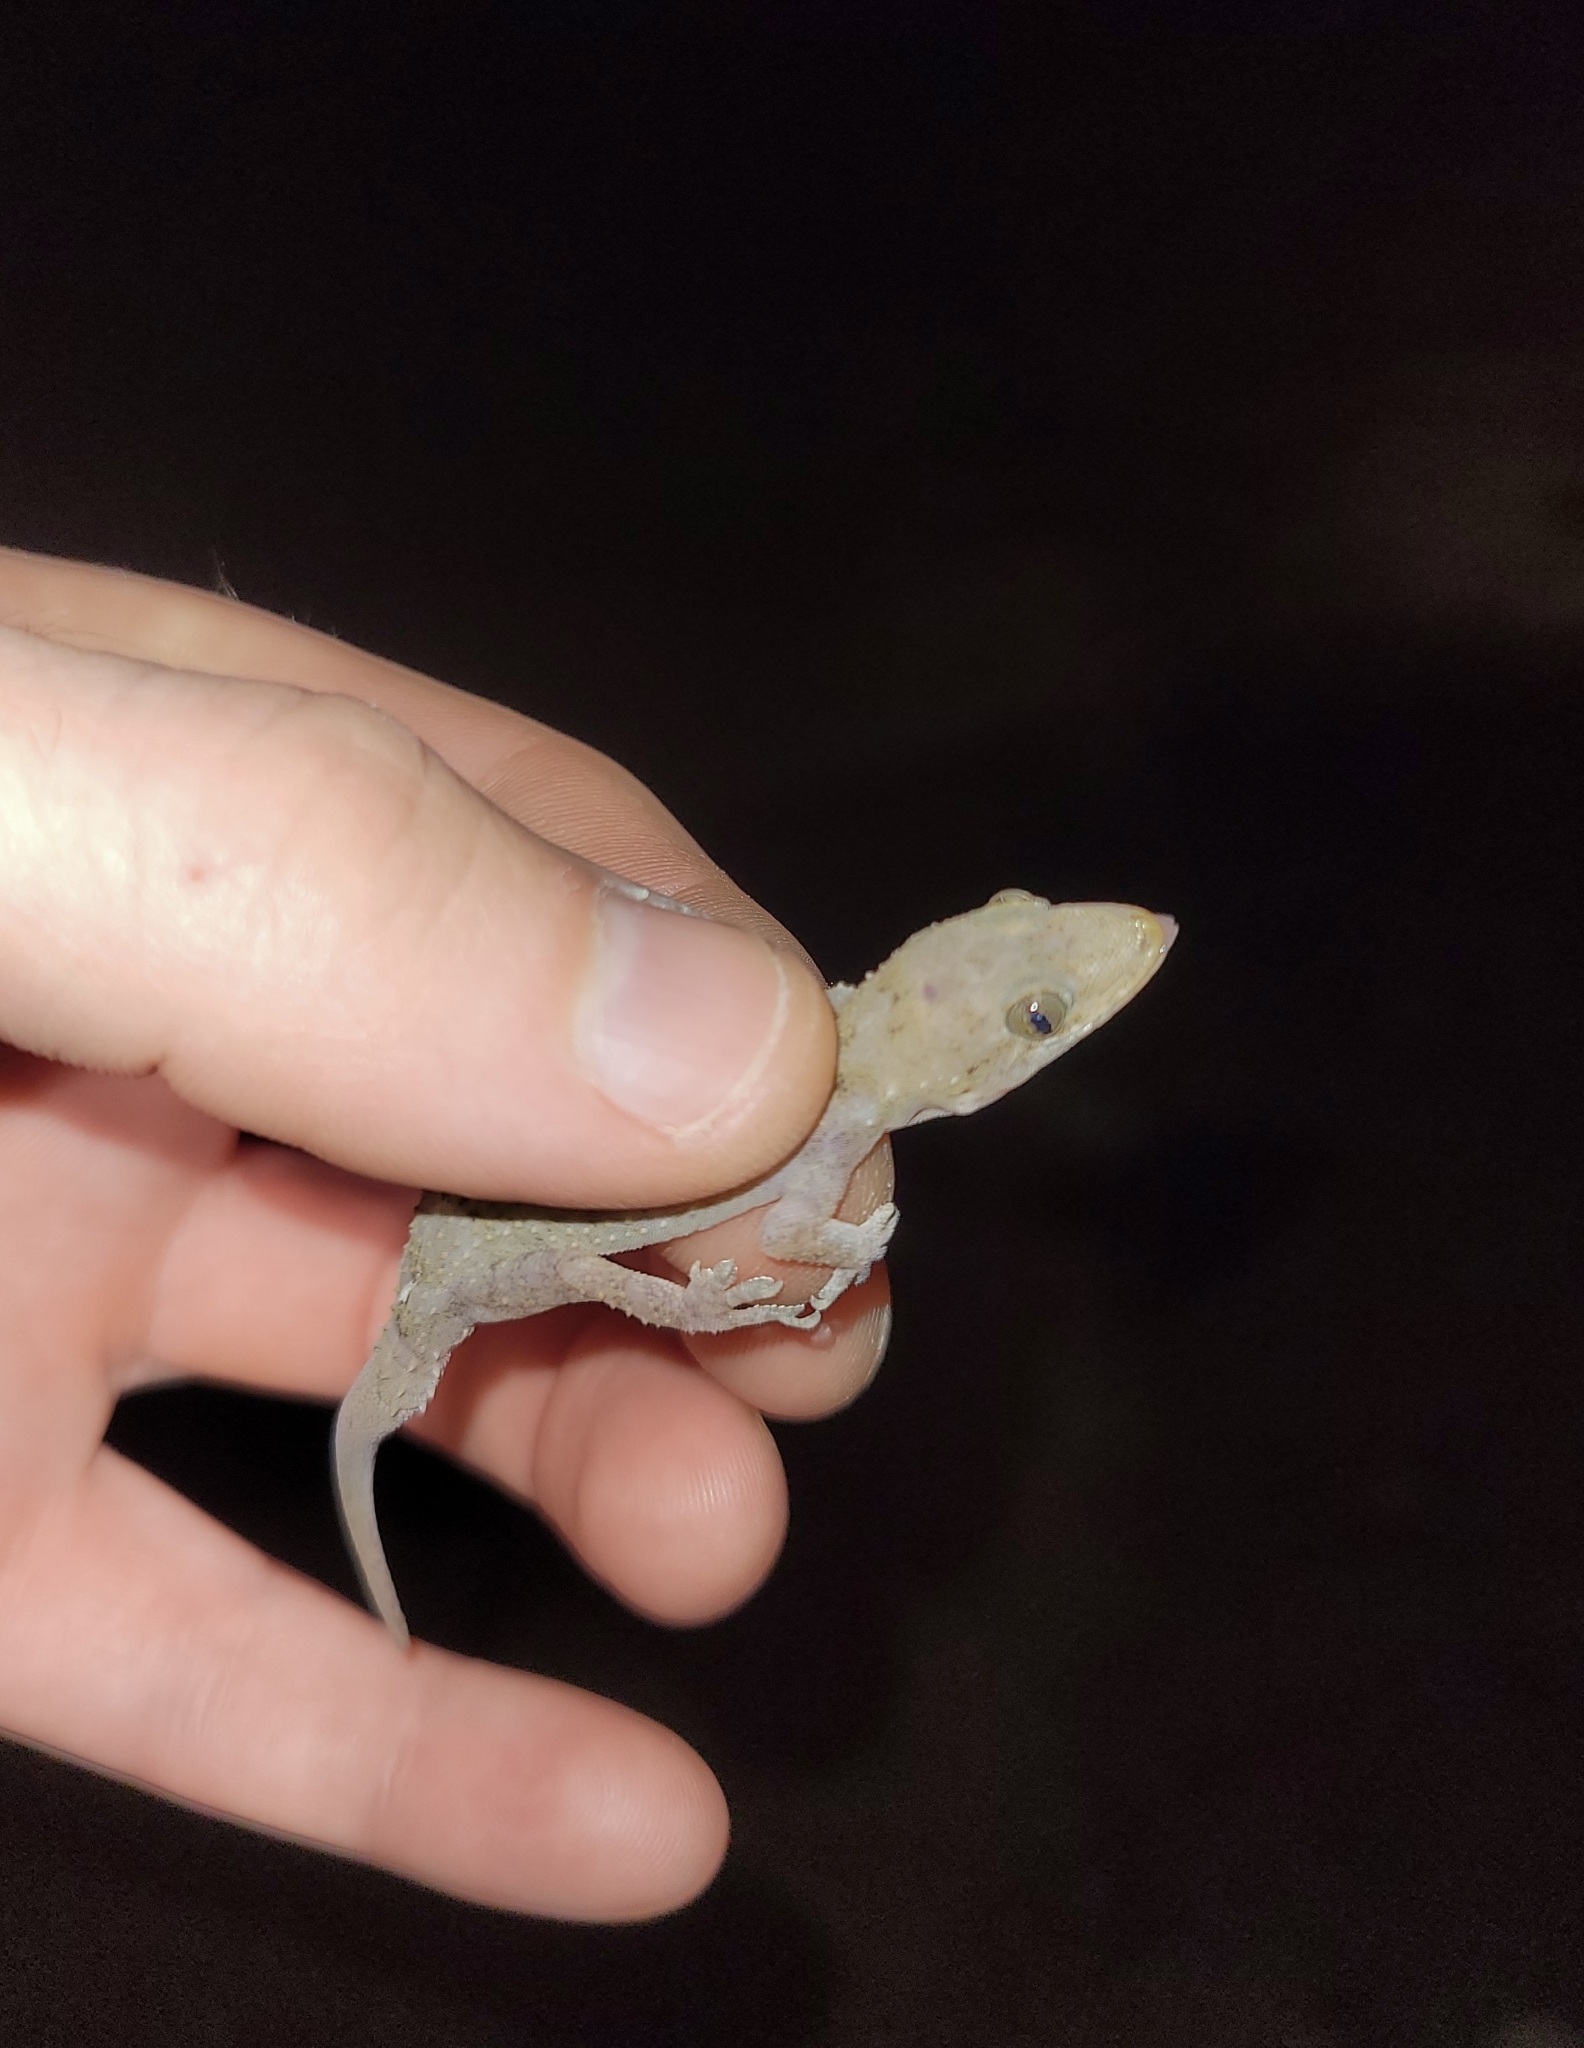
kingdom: Animalia
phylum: Chordata
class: Squamata
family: Gekkonidae
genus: Hemidactylus
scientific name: Hemidactylus mabouia
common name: House gecko
